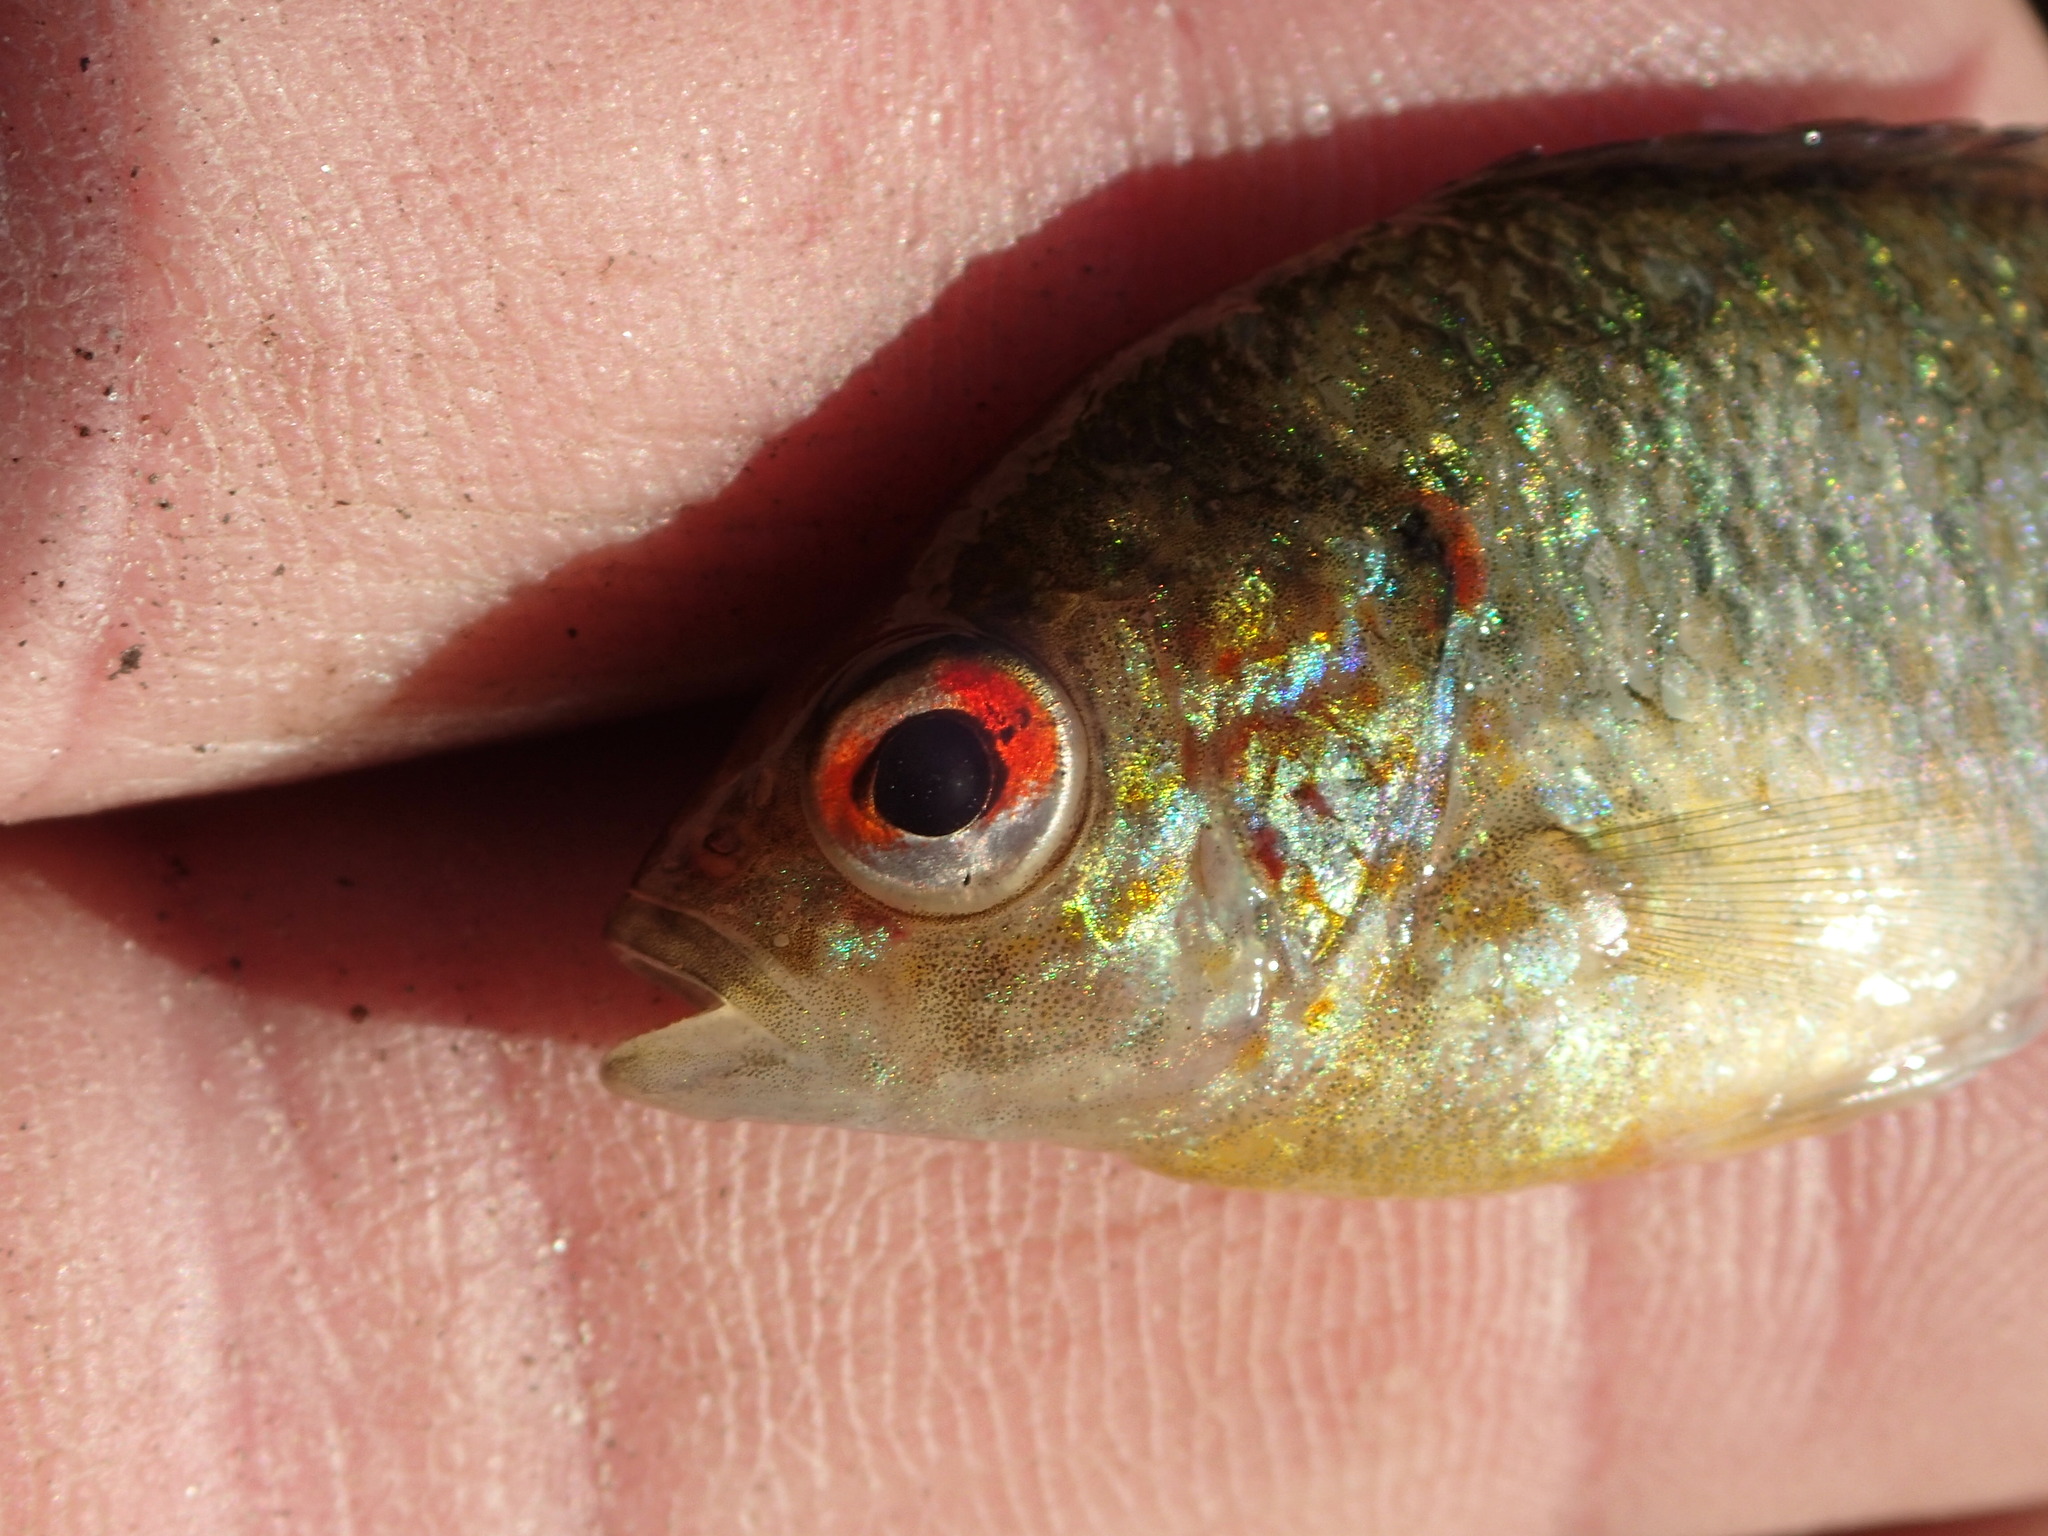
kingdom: Animalia
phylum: Chordata
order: Perciformes
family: Centrarchidae
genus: Lepomis
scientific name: Lepomis peltastes
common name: Northern sunfish
